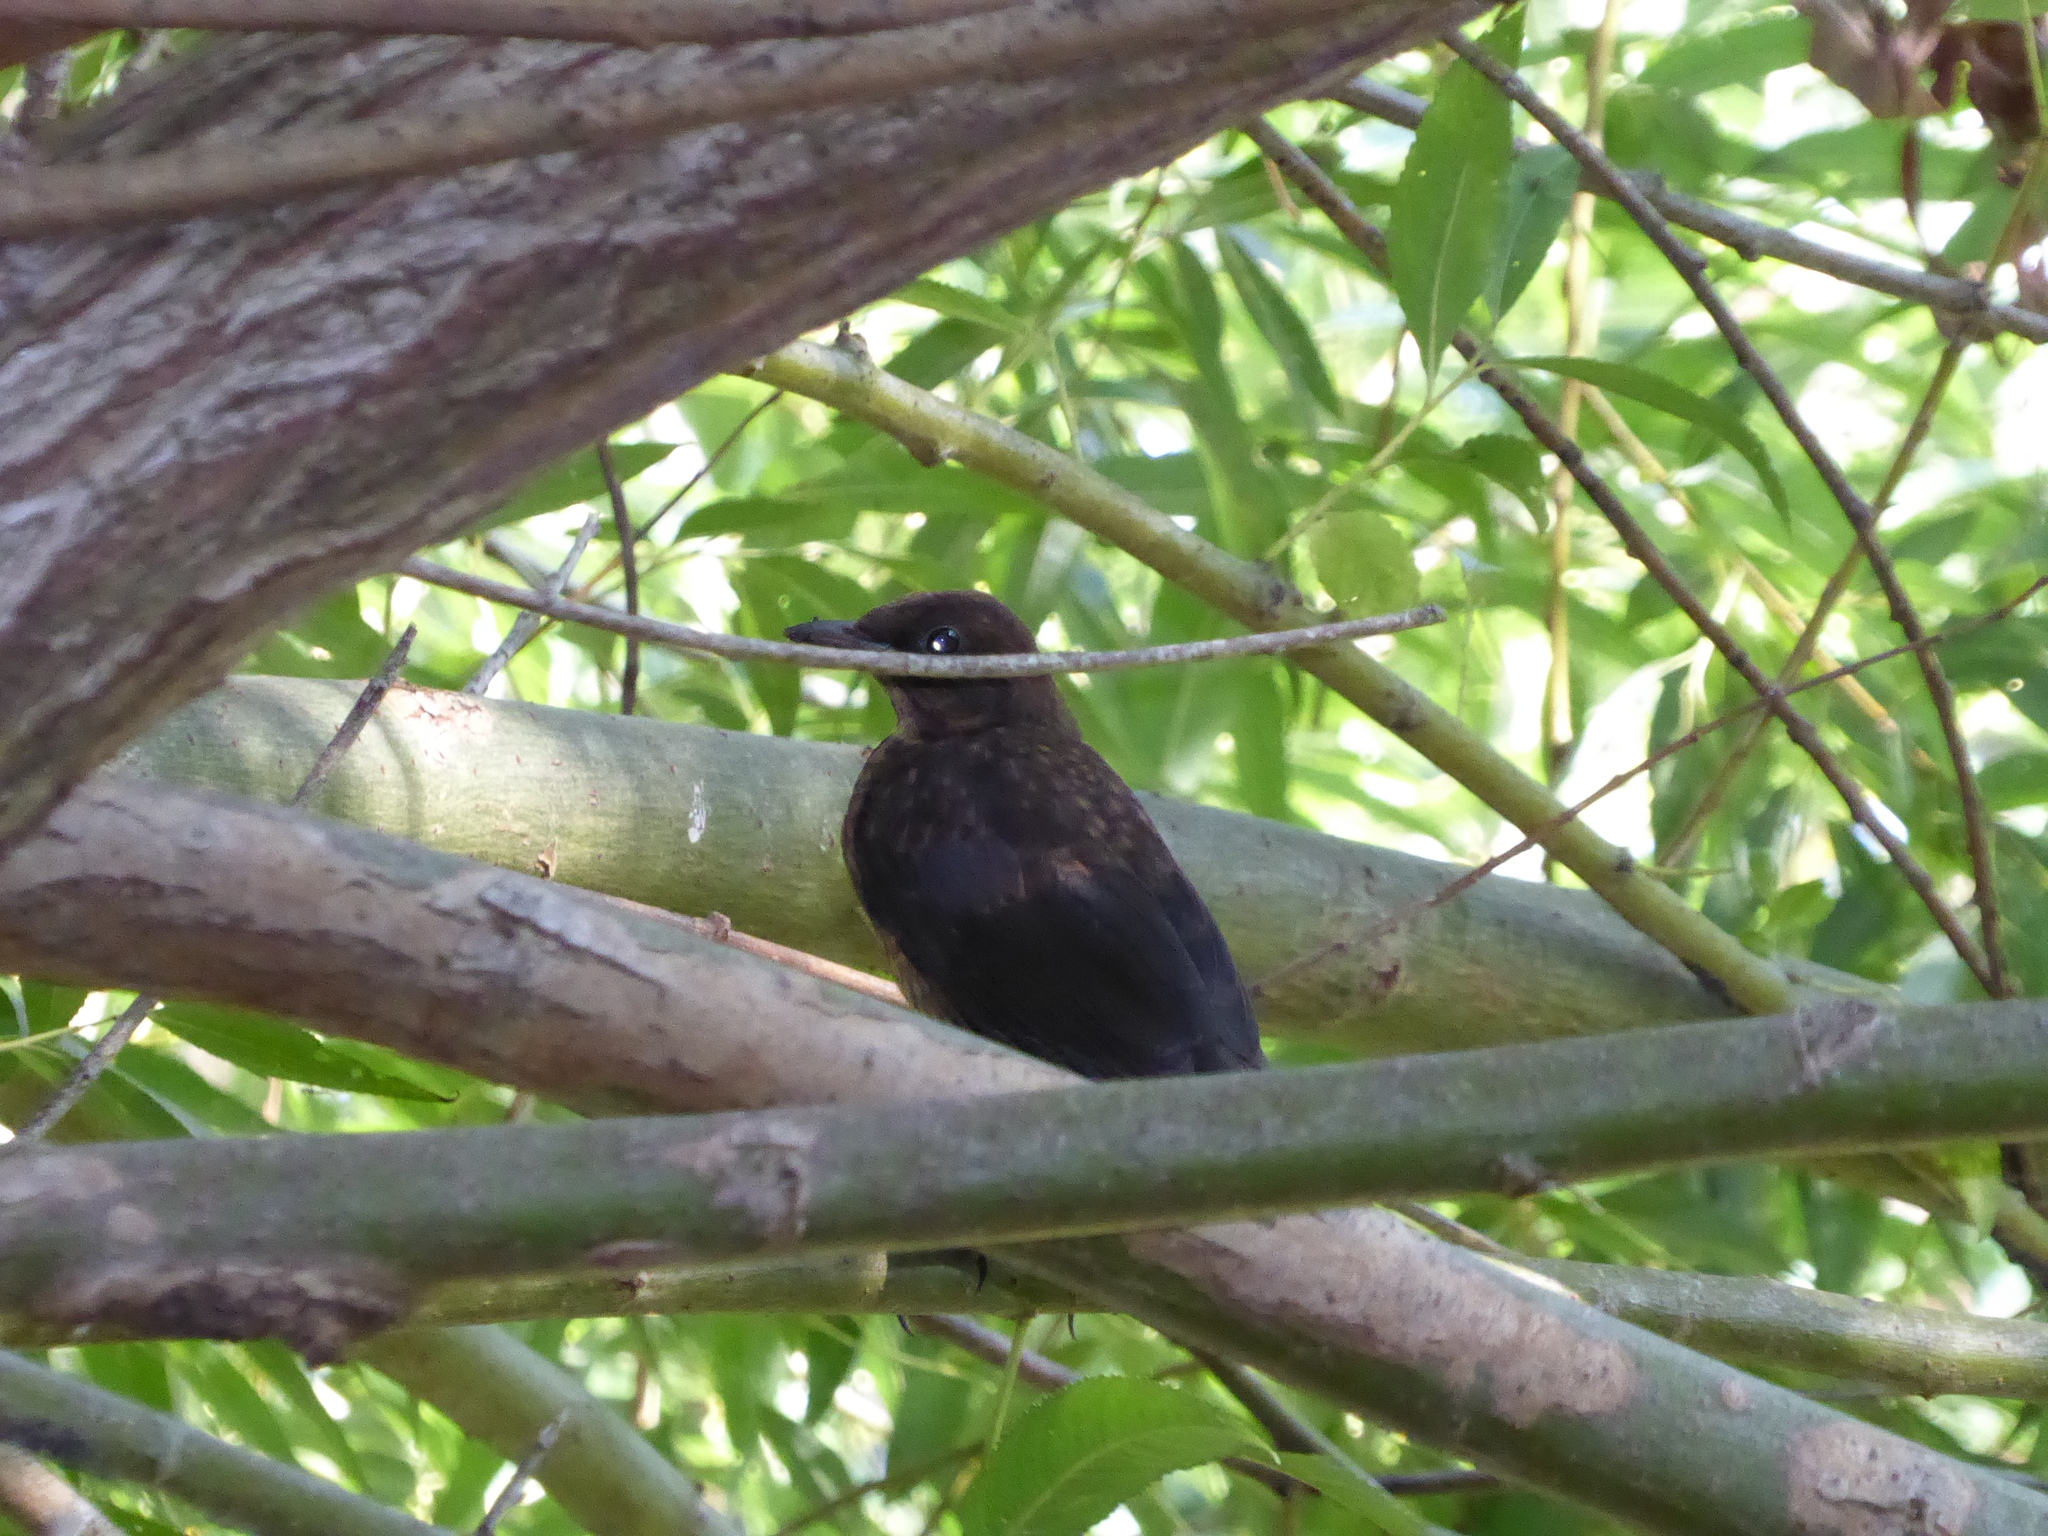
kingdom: Animalia
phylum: Chordata
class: Aves
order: Passeriformes
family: Turdidae
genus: Turdus
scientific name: Turdus merula
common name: Common blackbird
